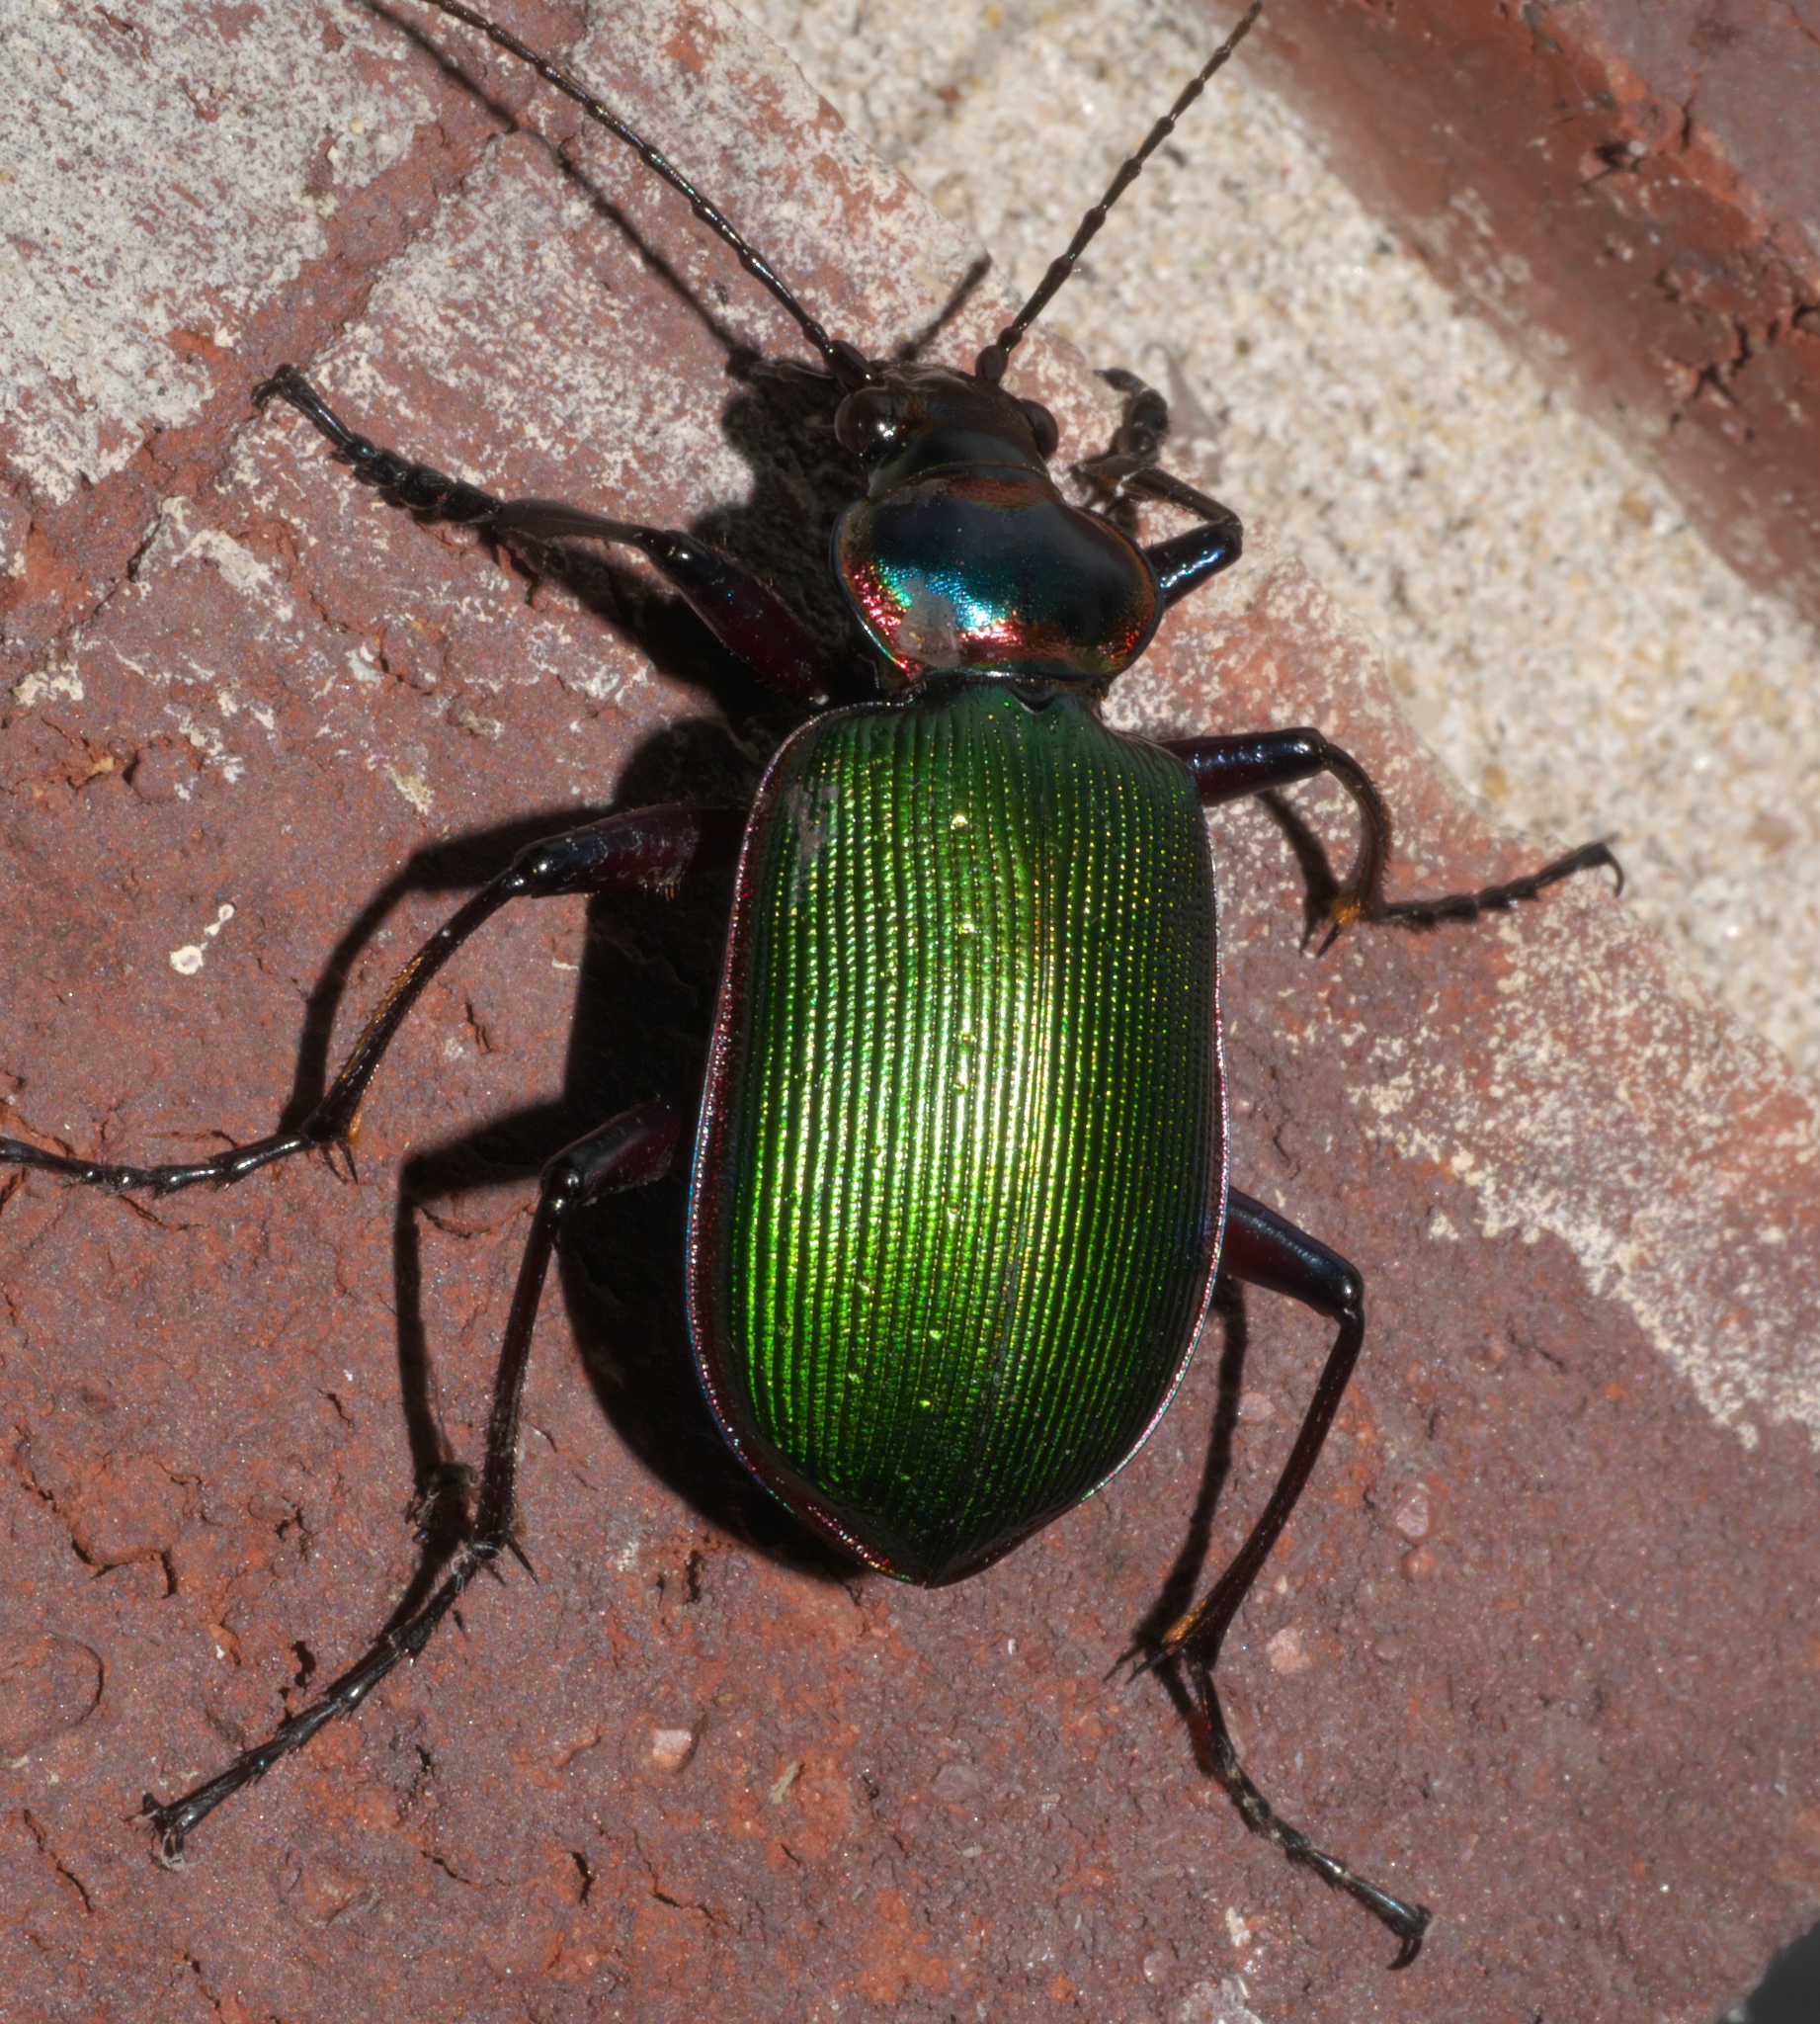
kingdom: Animalia
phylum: Arthropoda
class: Insecta
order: Coleoptera
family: Carabidae
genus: Calosoma
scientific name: Calosoma scrutator
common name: Fiery searcher beetle
